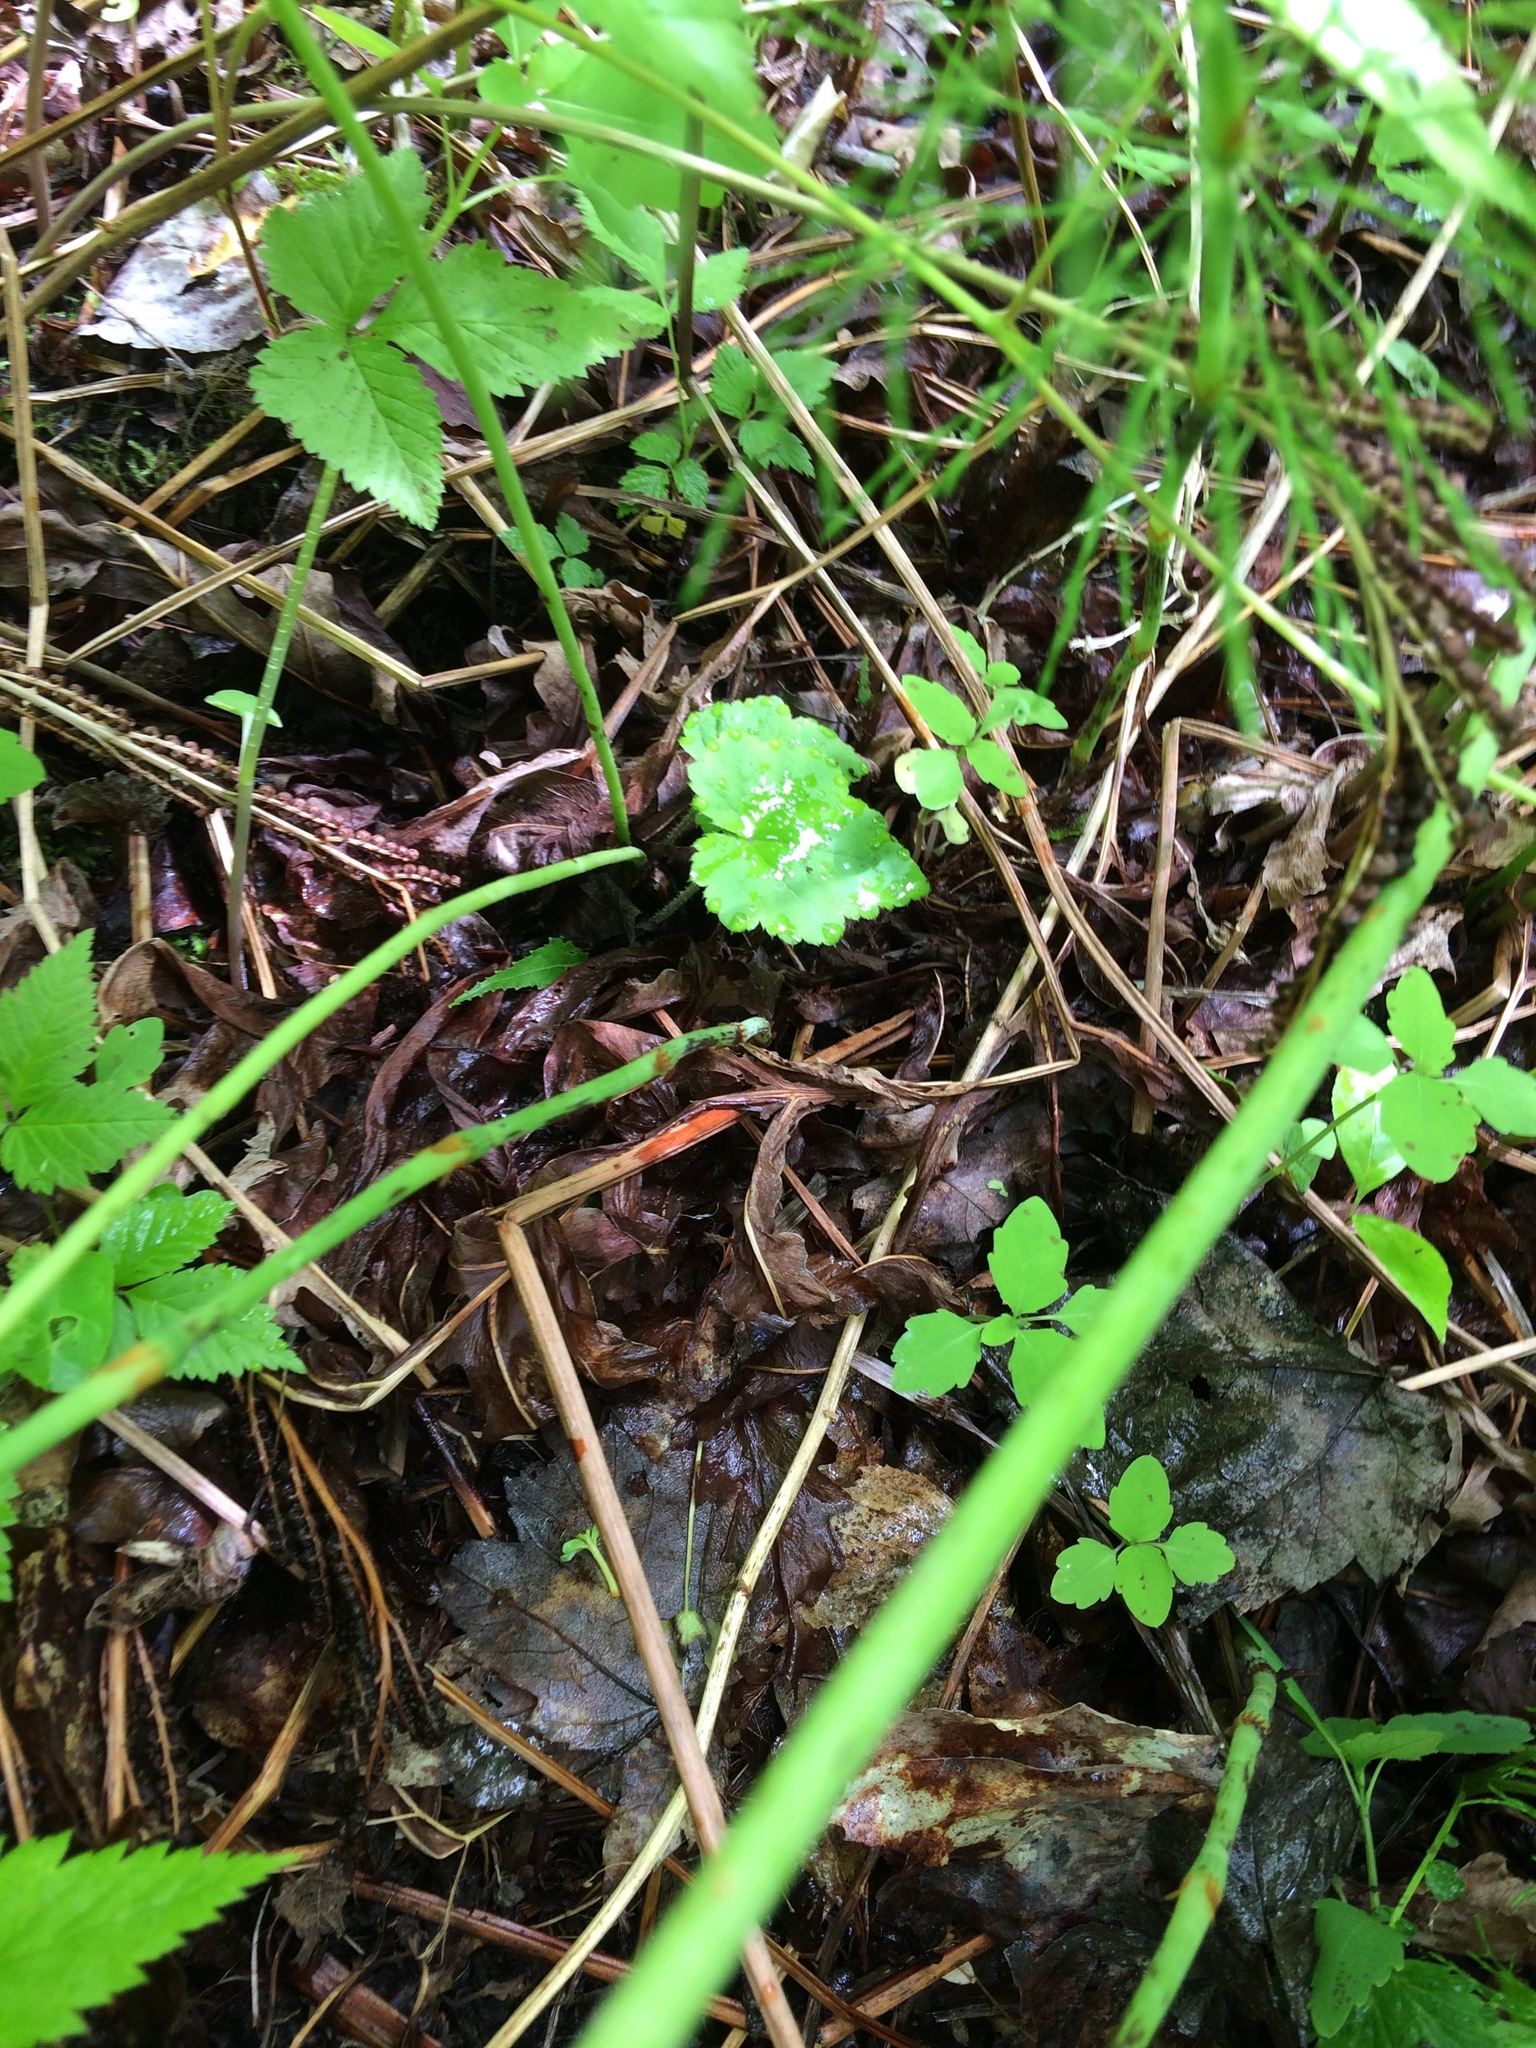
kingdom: Plantae
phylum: Tracheophyta
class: Magnoliopsida
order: Saxifragales
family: Saxifragaceae
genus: Tiarella
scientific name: Tiarella stolonifera
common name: Stoloniferous foamflower
